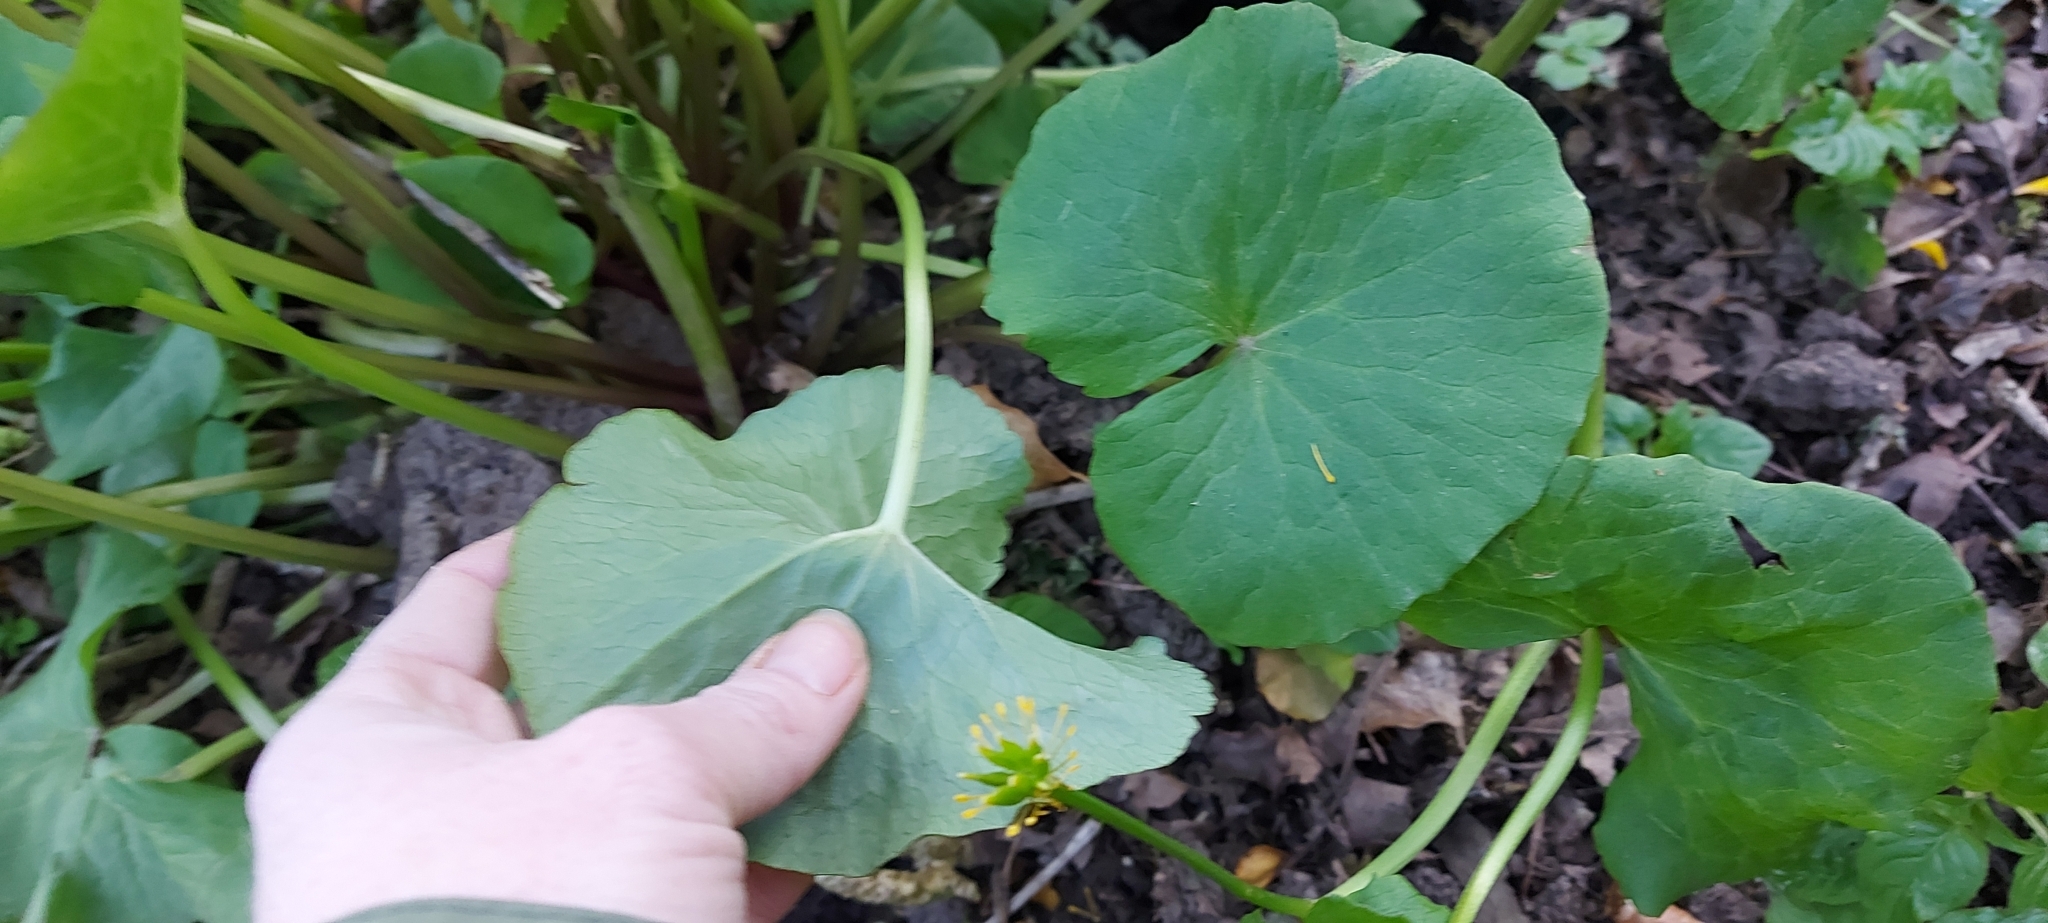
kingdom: Plantae
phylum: Tracheophyta
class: Magnoliopsida
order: Ranunculales
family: Ranunculaceae
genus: Caltha
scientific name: Caltha palustris
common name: Marsh marigold
